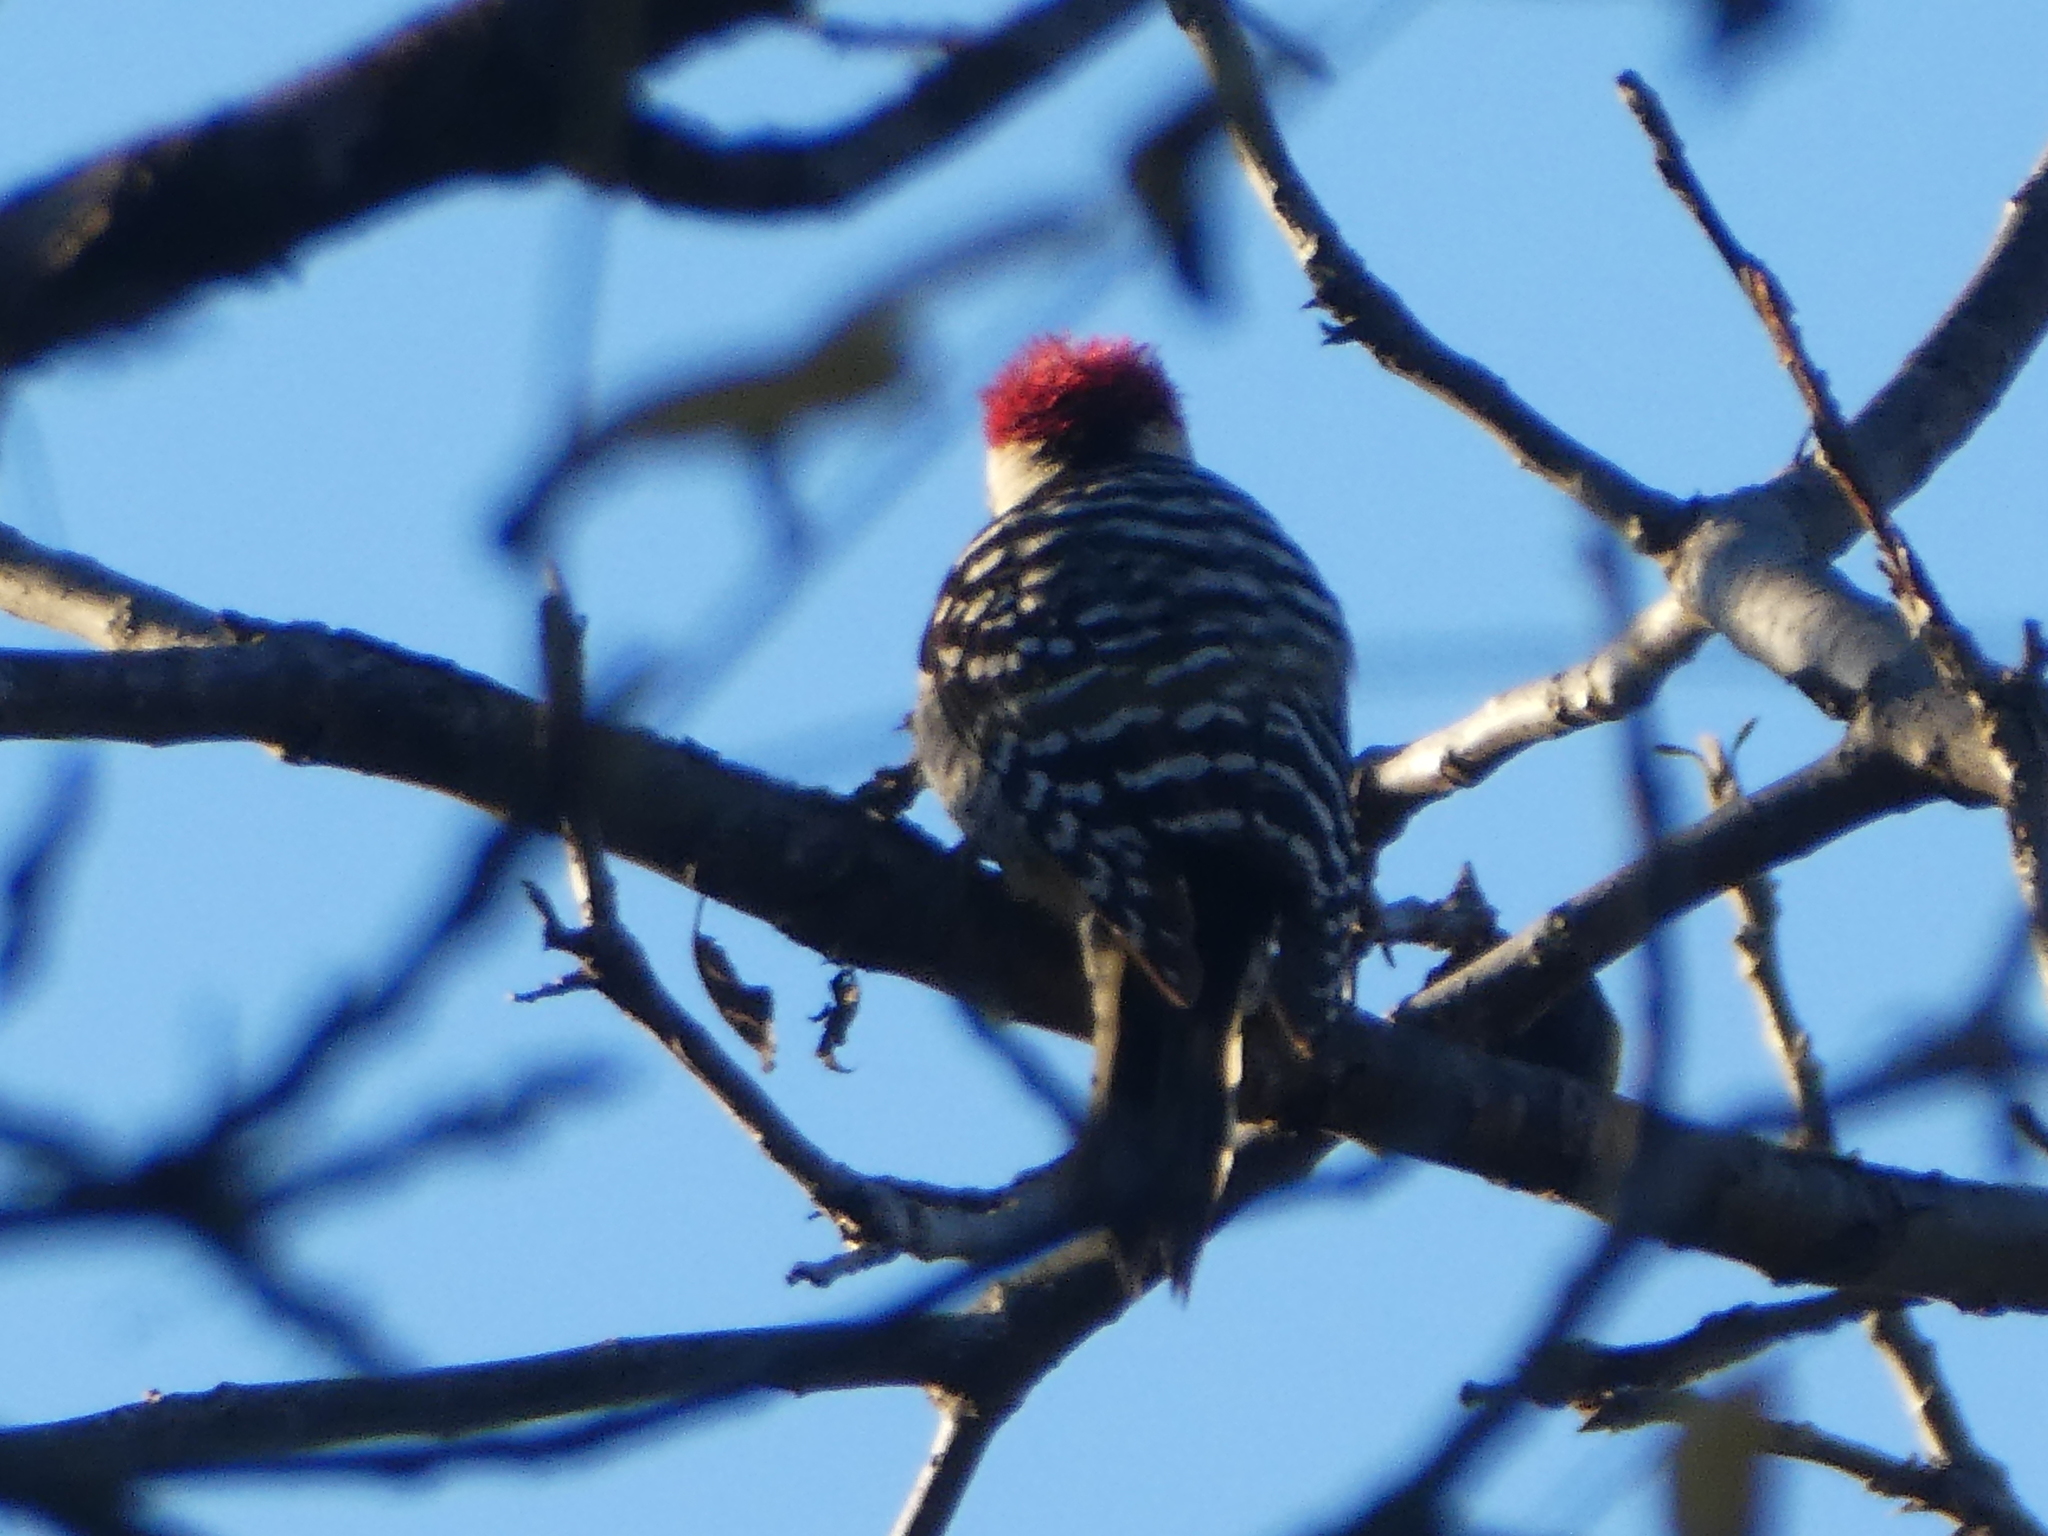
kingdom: Animalia
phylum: Chordata
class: Aves
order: Piciformes
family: Picidae
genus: Dryobates
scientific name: Dryobates nuttallii
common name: Nuttall's woodpecker
